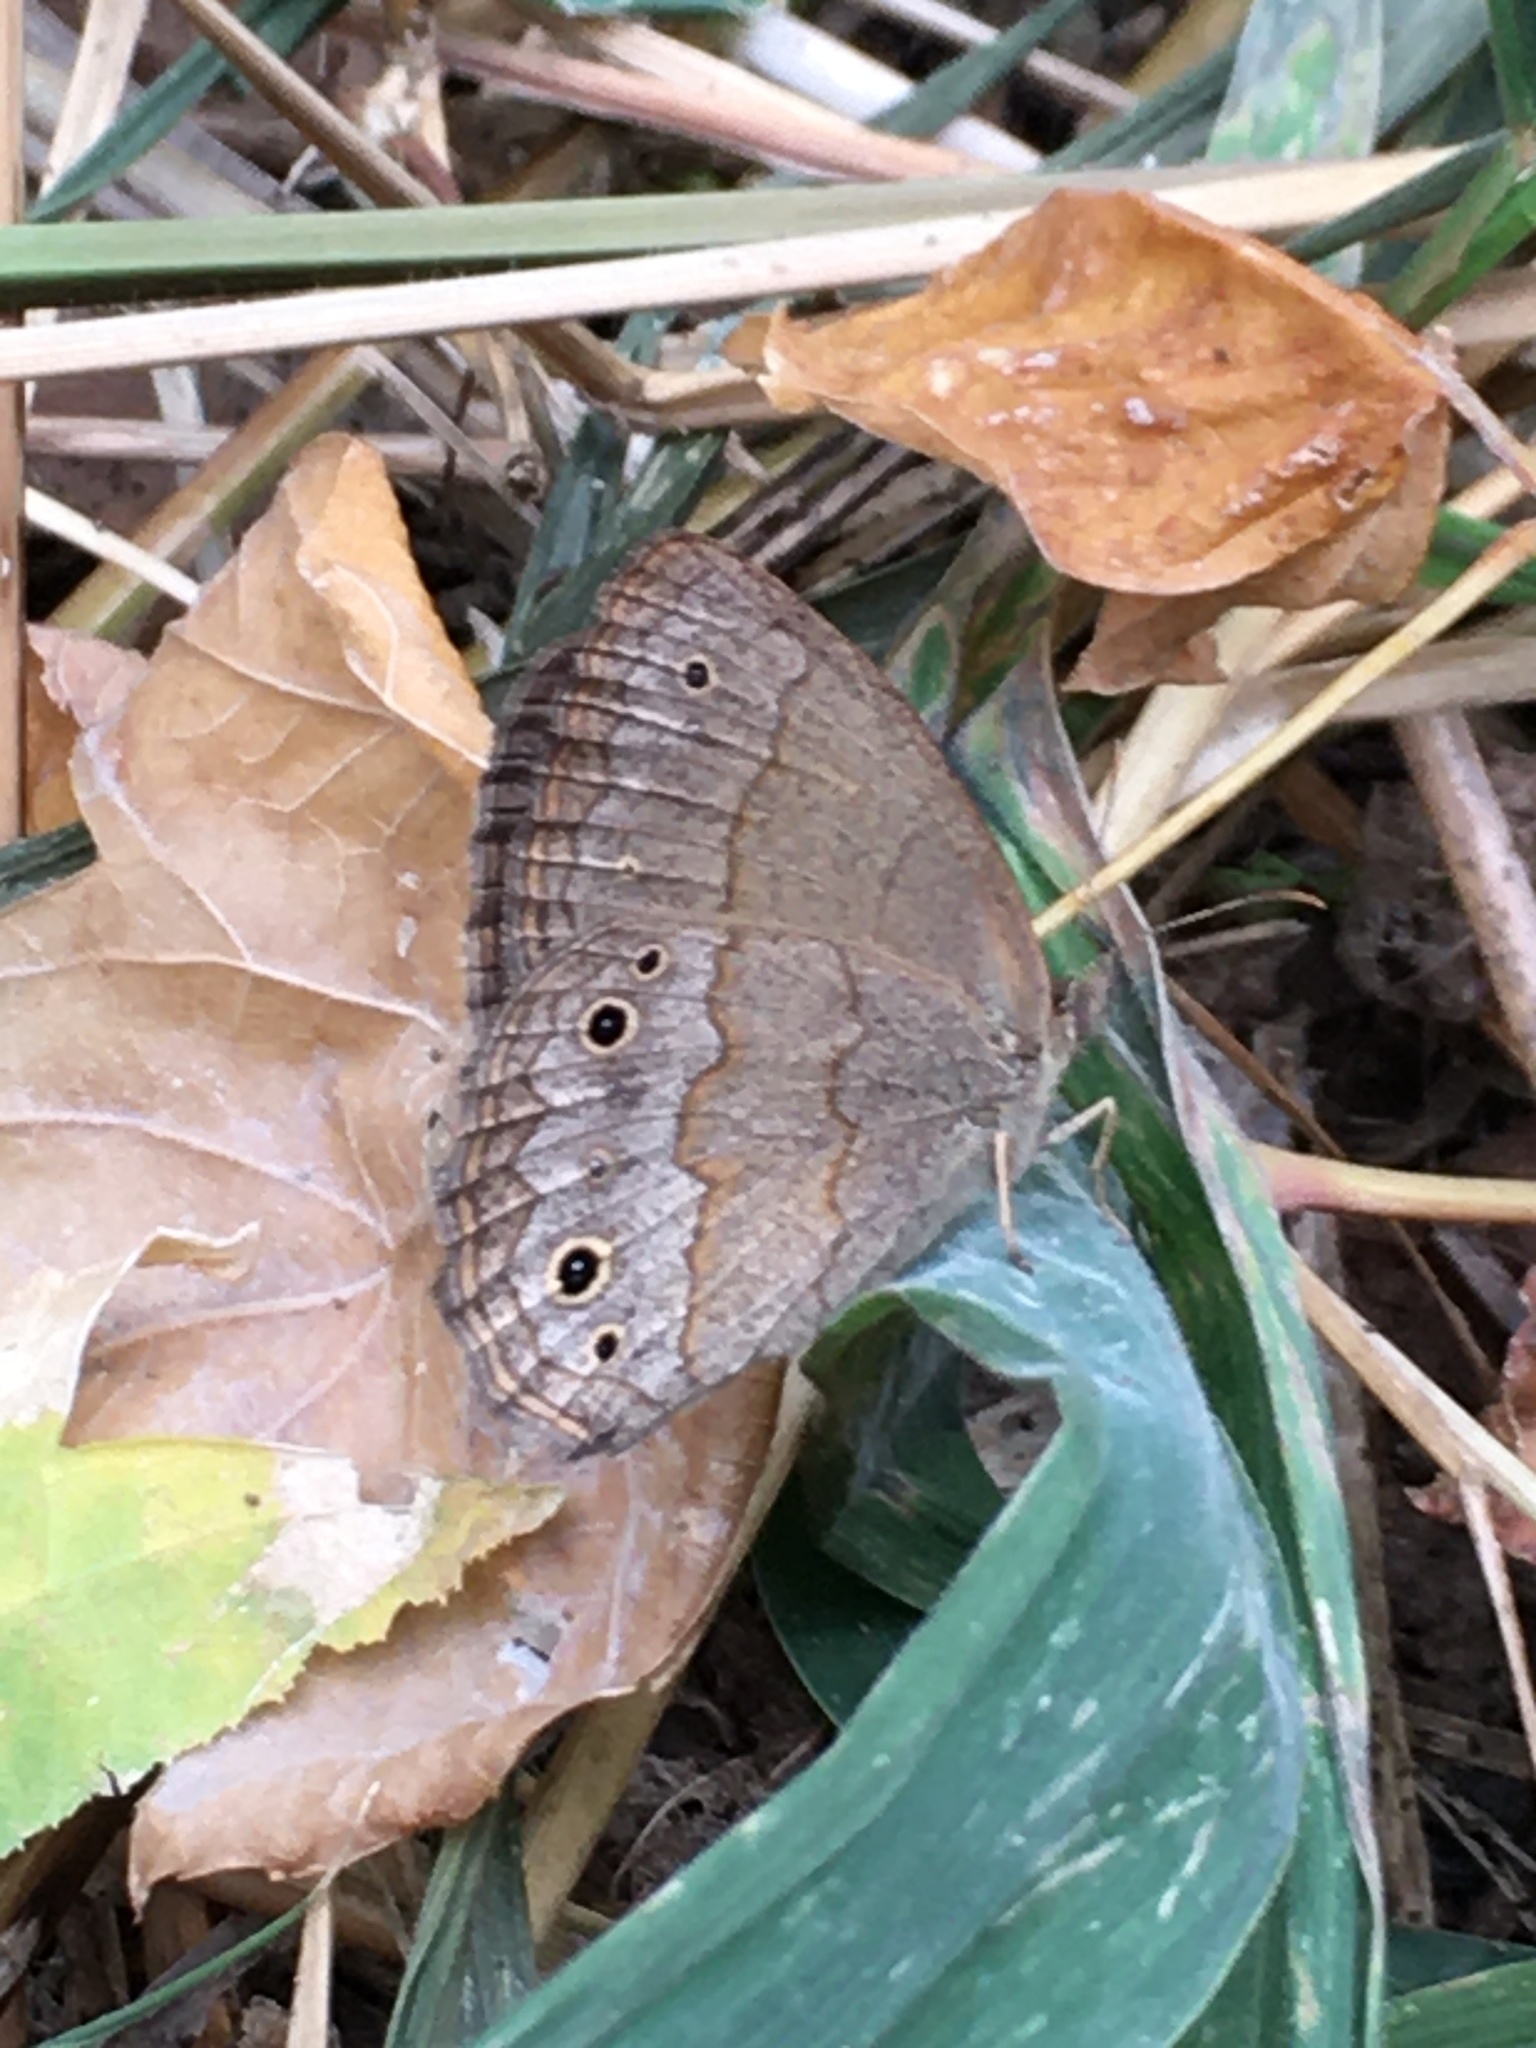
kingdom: Animalia
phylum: Arthropoda
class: Insecta
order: Lepidoptera
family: Nymphalidae
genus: Yphthimoides
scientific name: Yphthimoides celmis
